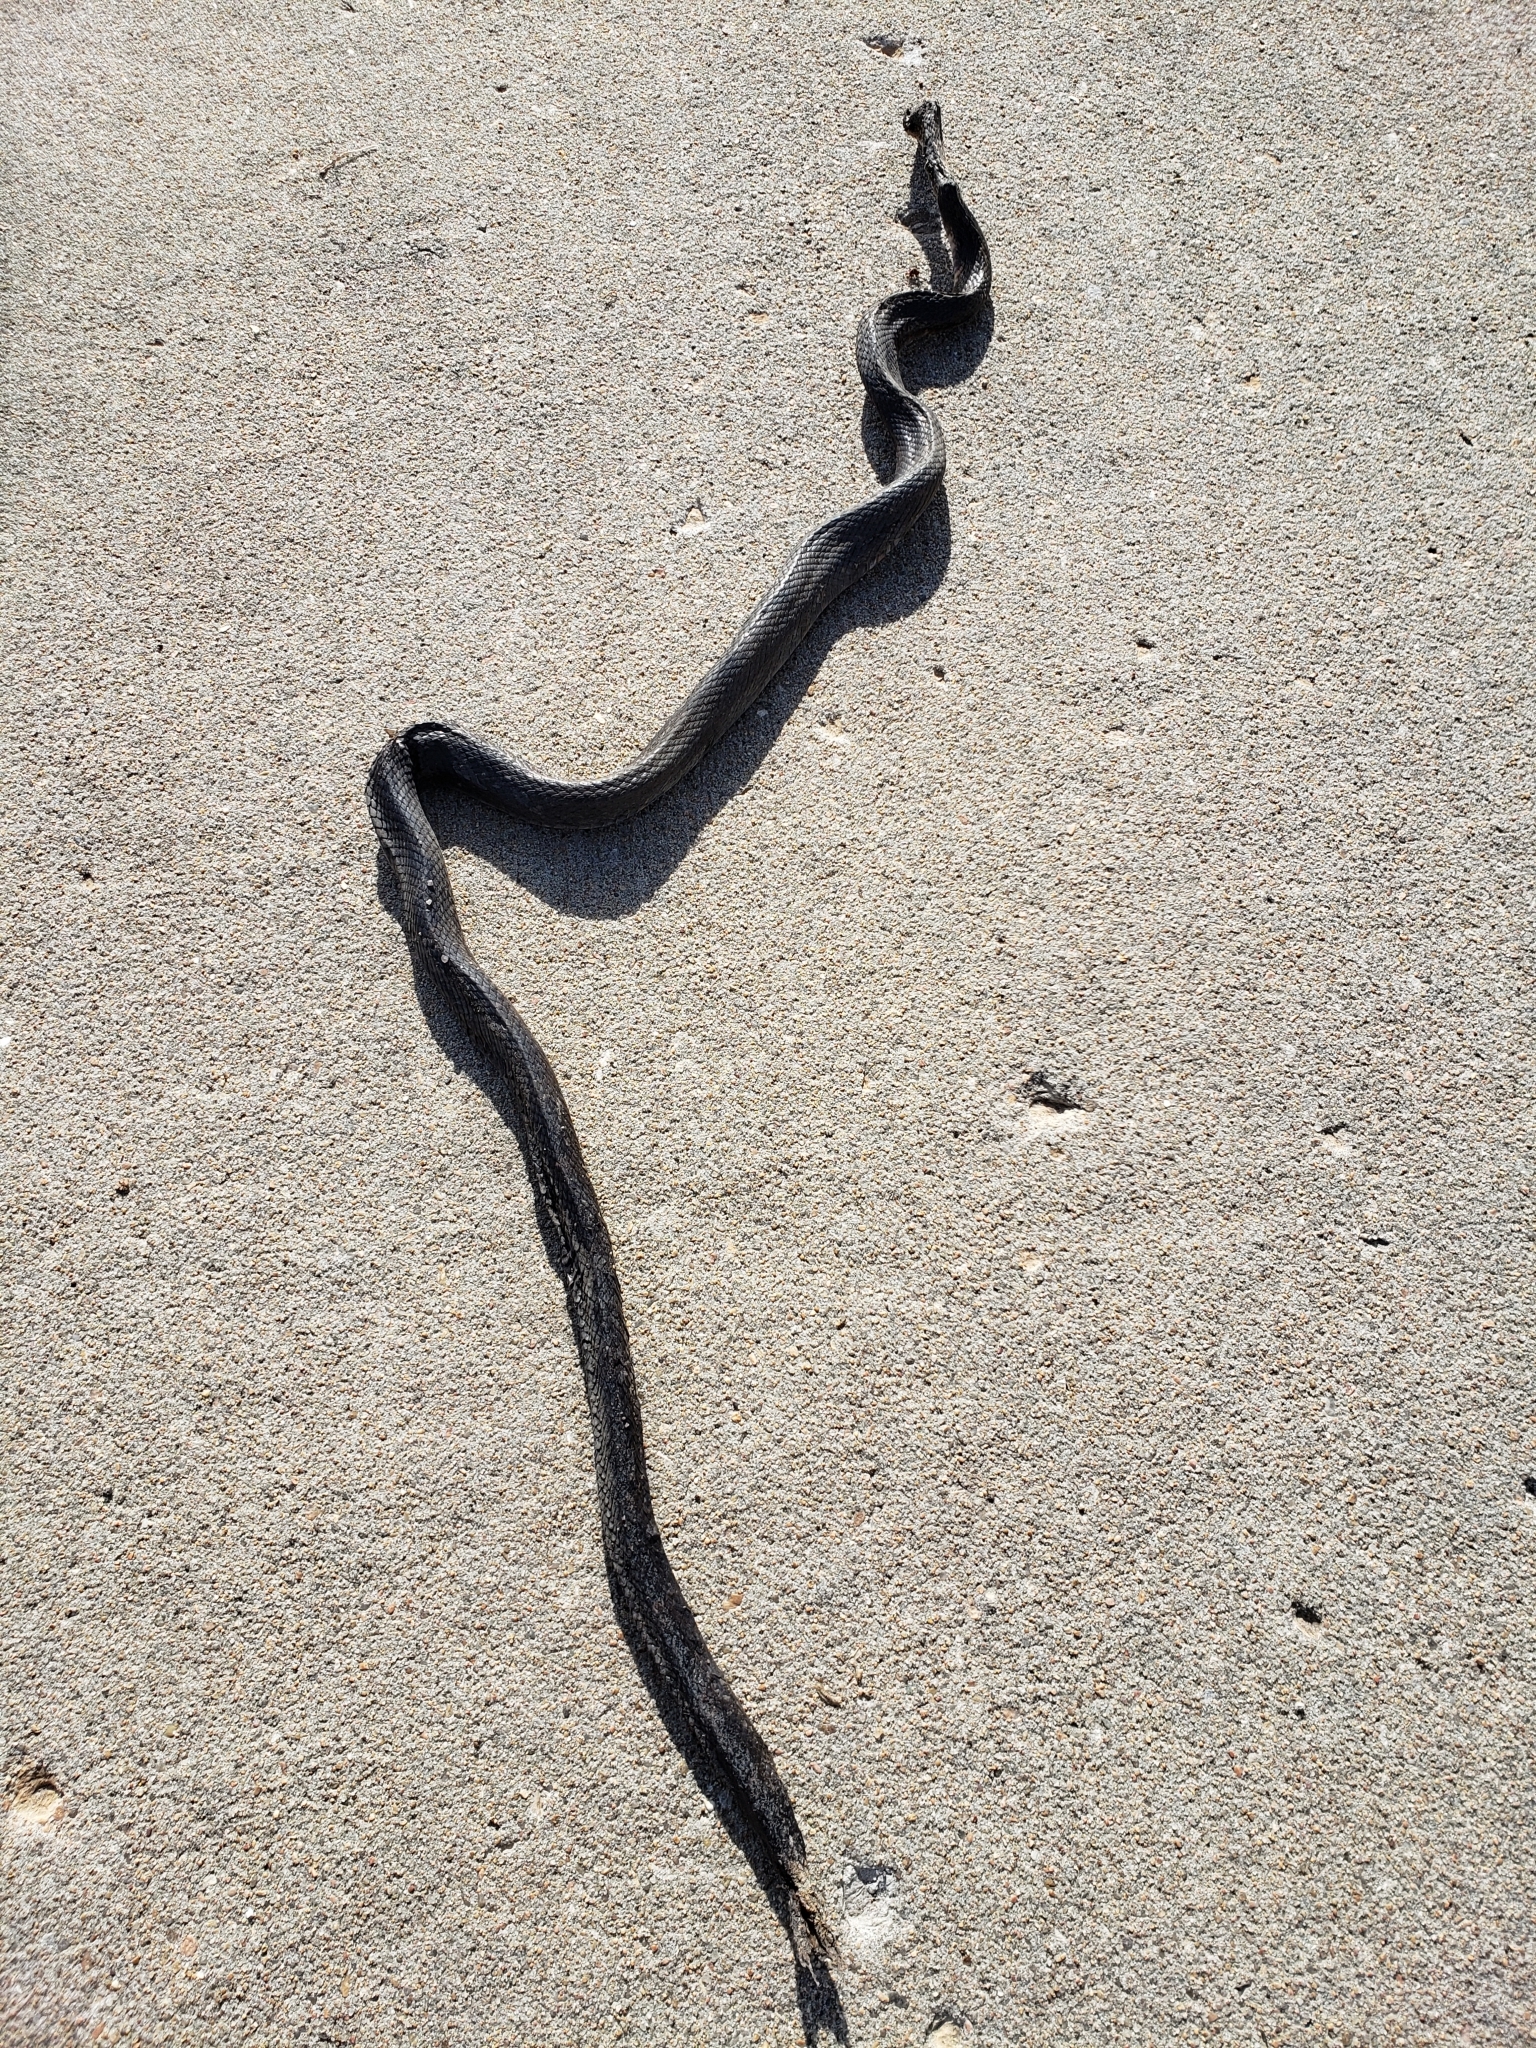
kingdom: Animalia
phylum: Chordata
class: Squamata
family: Colubridae
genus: Pantherophis
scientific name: Pantherophis obsoletus
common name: Black rat snake
